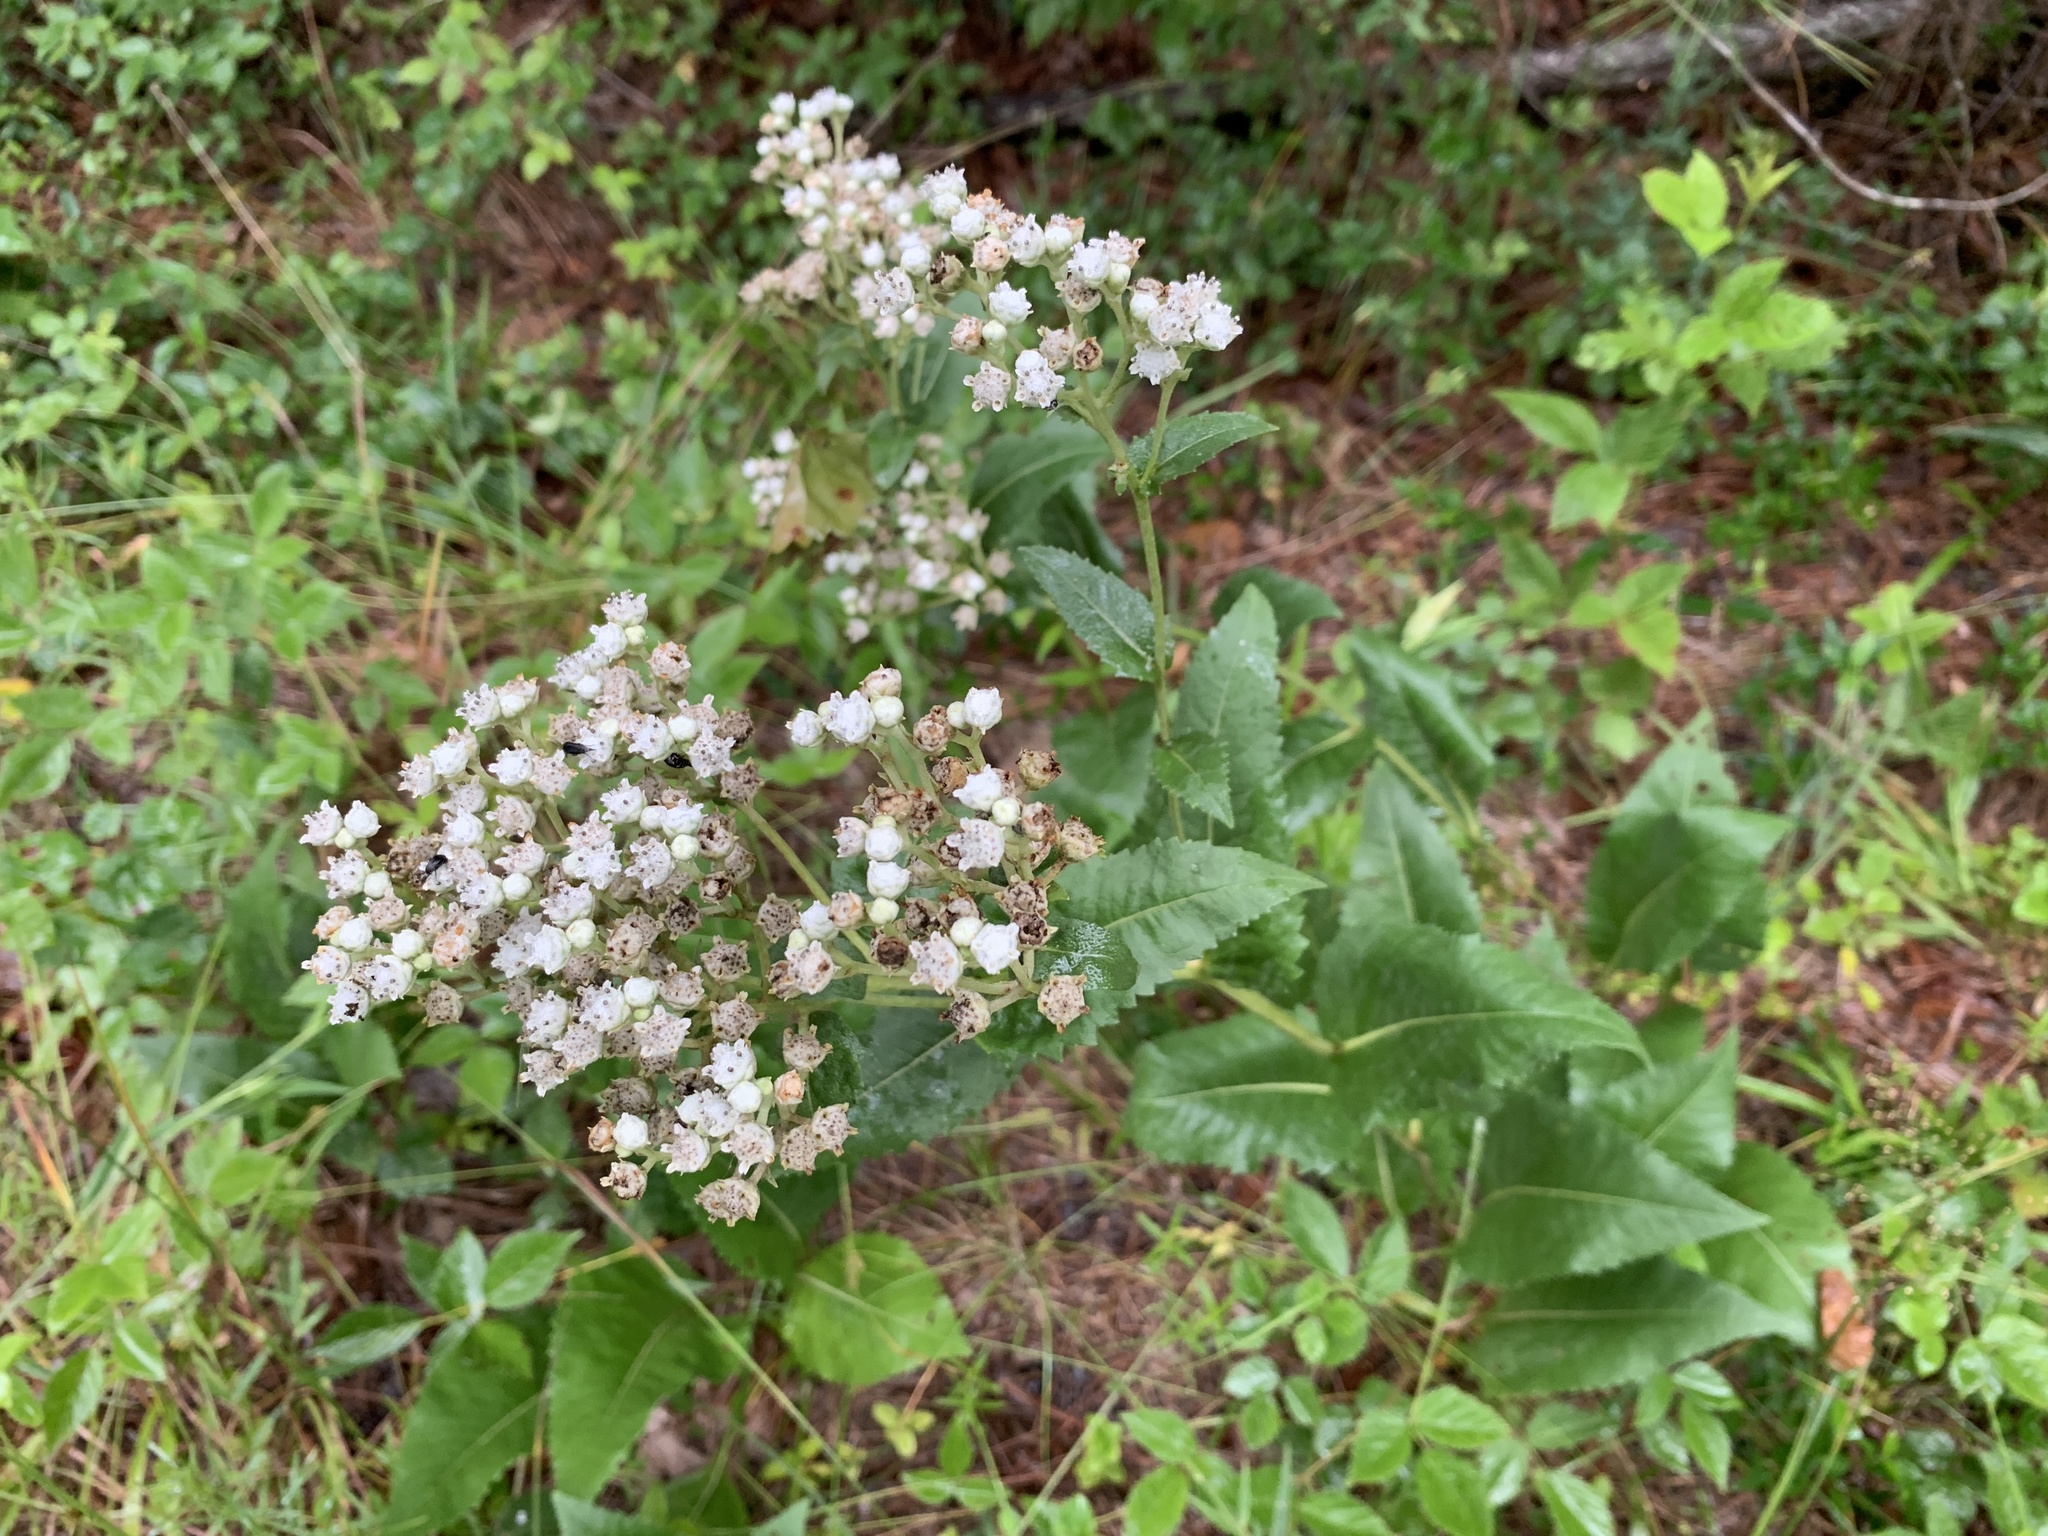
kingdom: Plantae
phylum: Tracheophyta
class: Magnoliopsida
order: Asterales
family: Asteraceae
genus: Parthenium
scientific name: Parthenium integrifolium
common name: American feverfew
